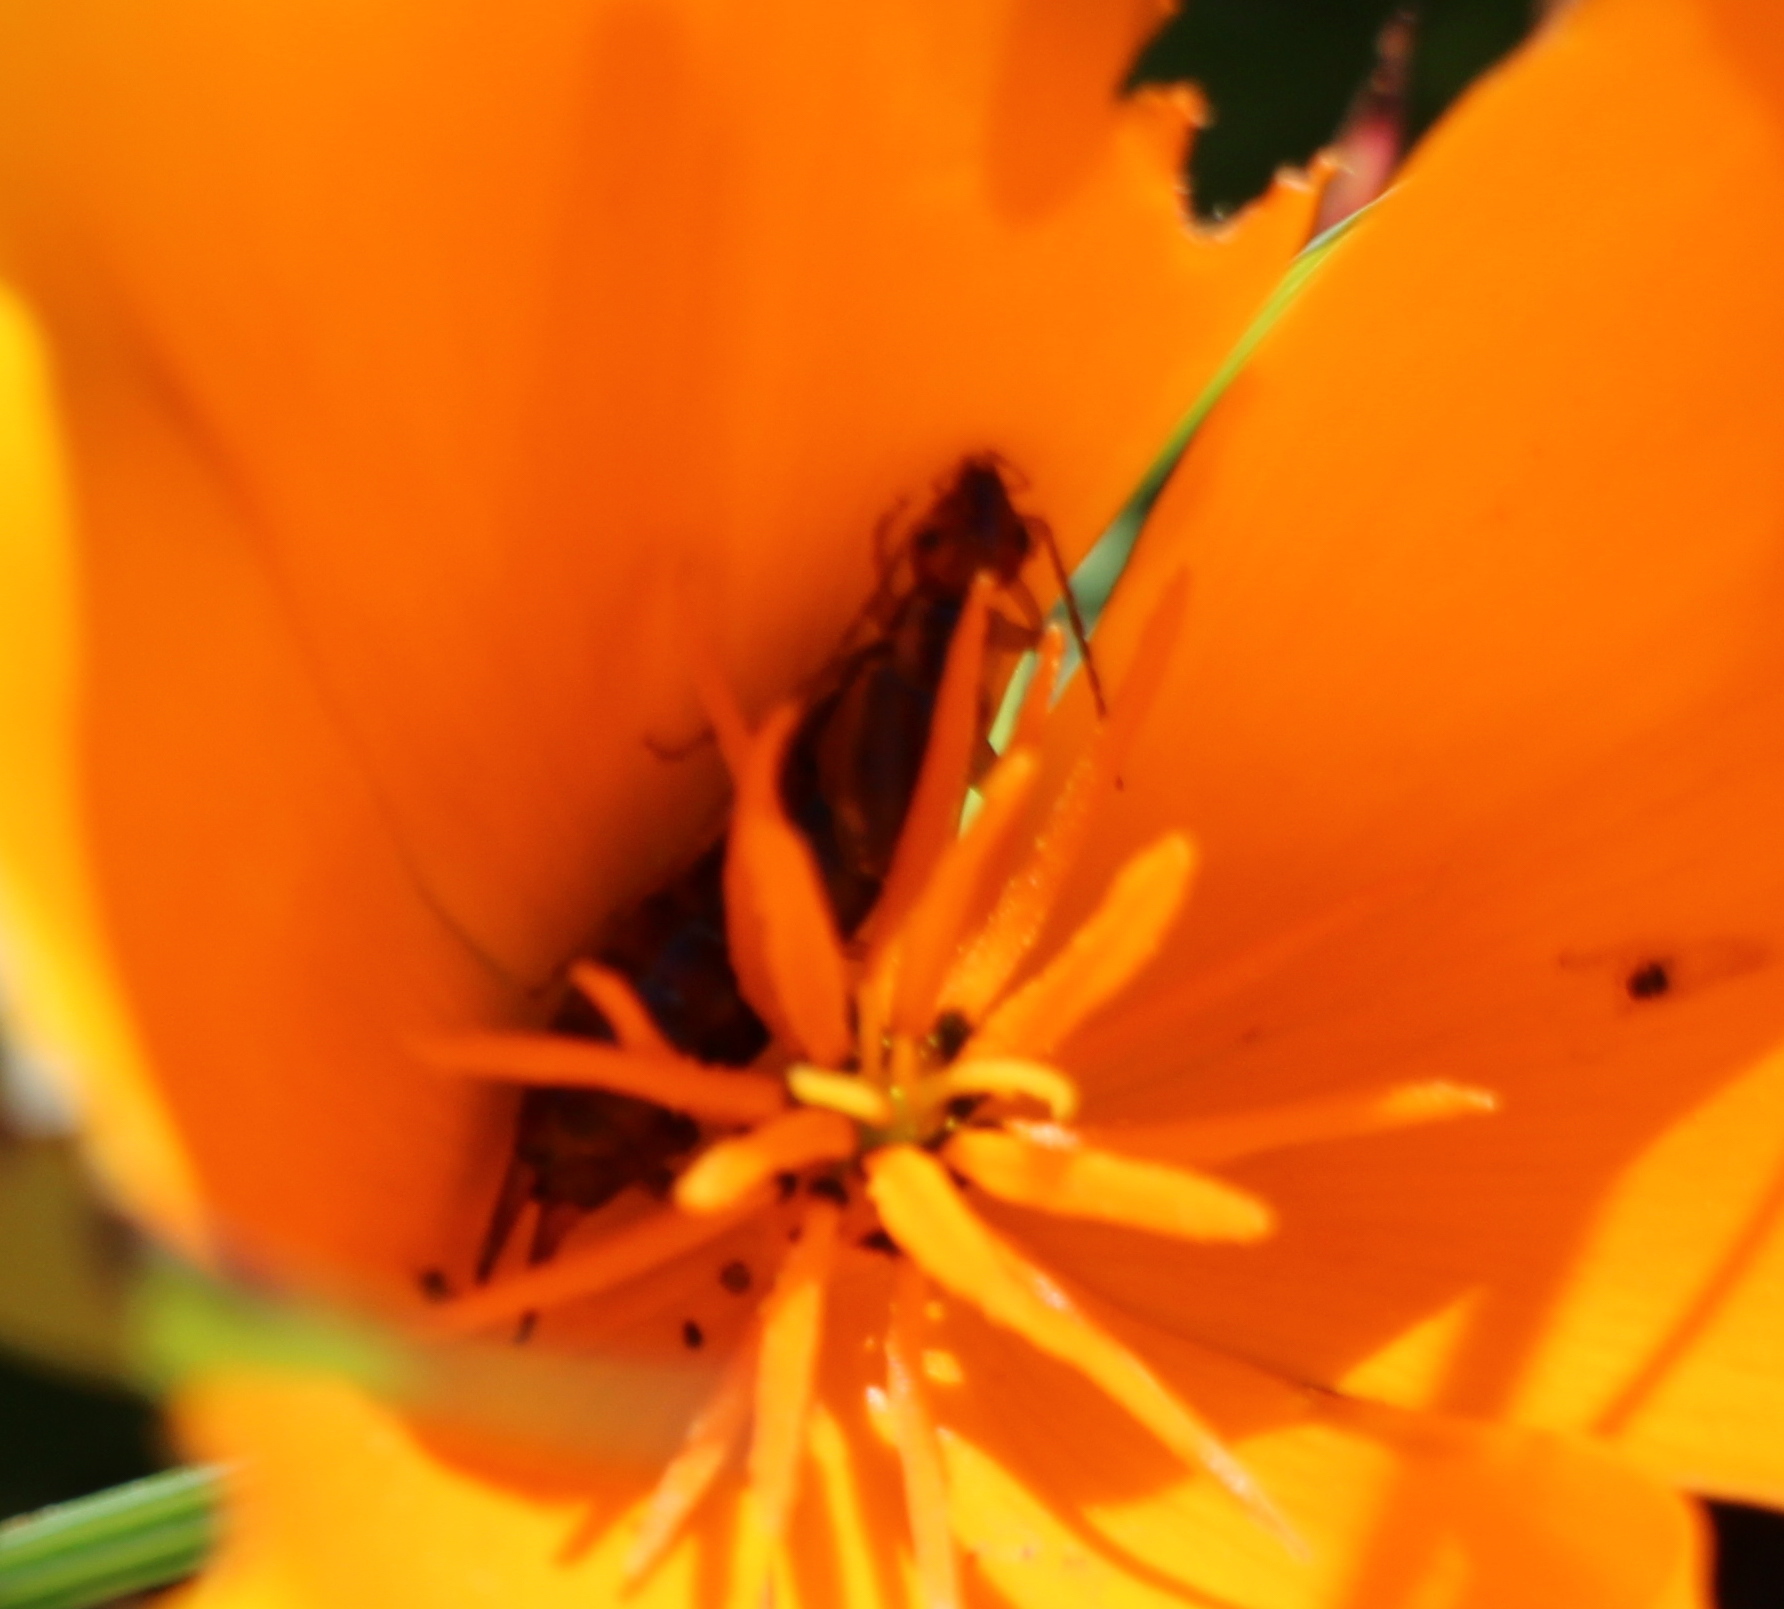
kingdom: Animalia
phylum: Arthropoda
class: Insecta
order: Dermaptera
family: Forficulidae
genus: Forficula
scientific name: Forficula
